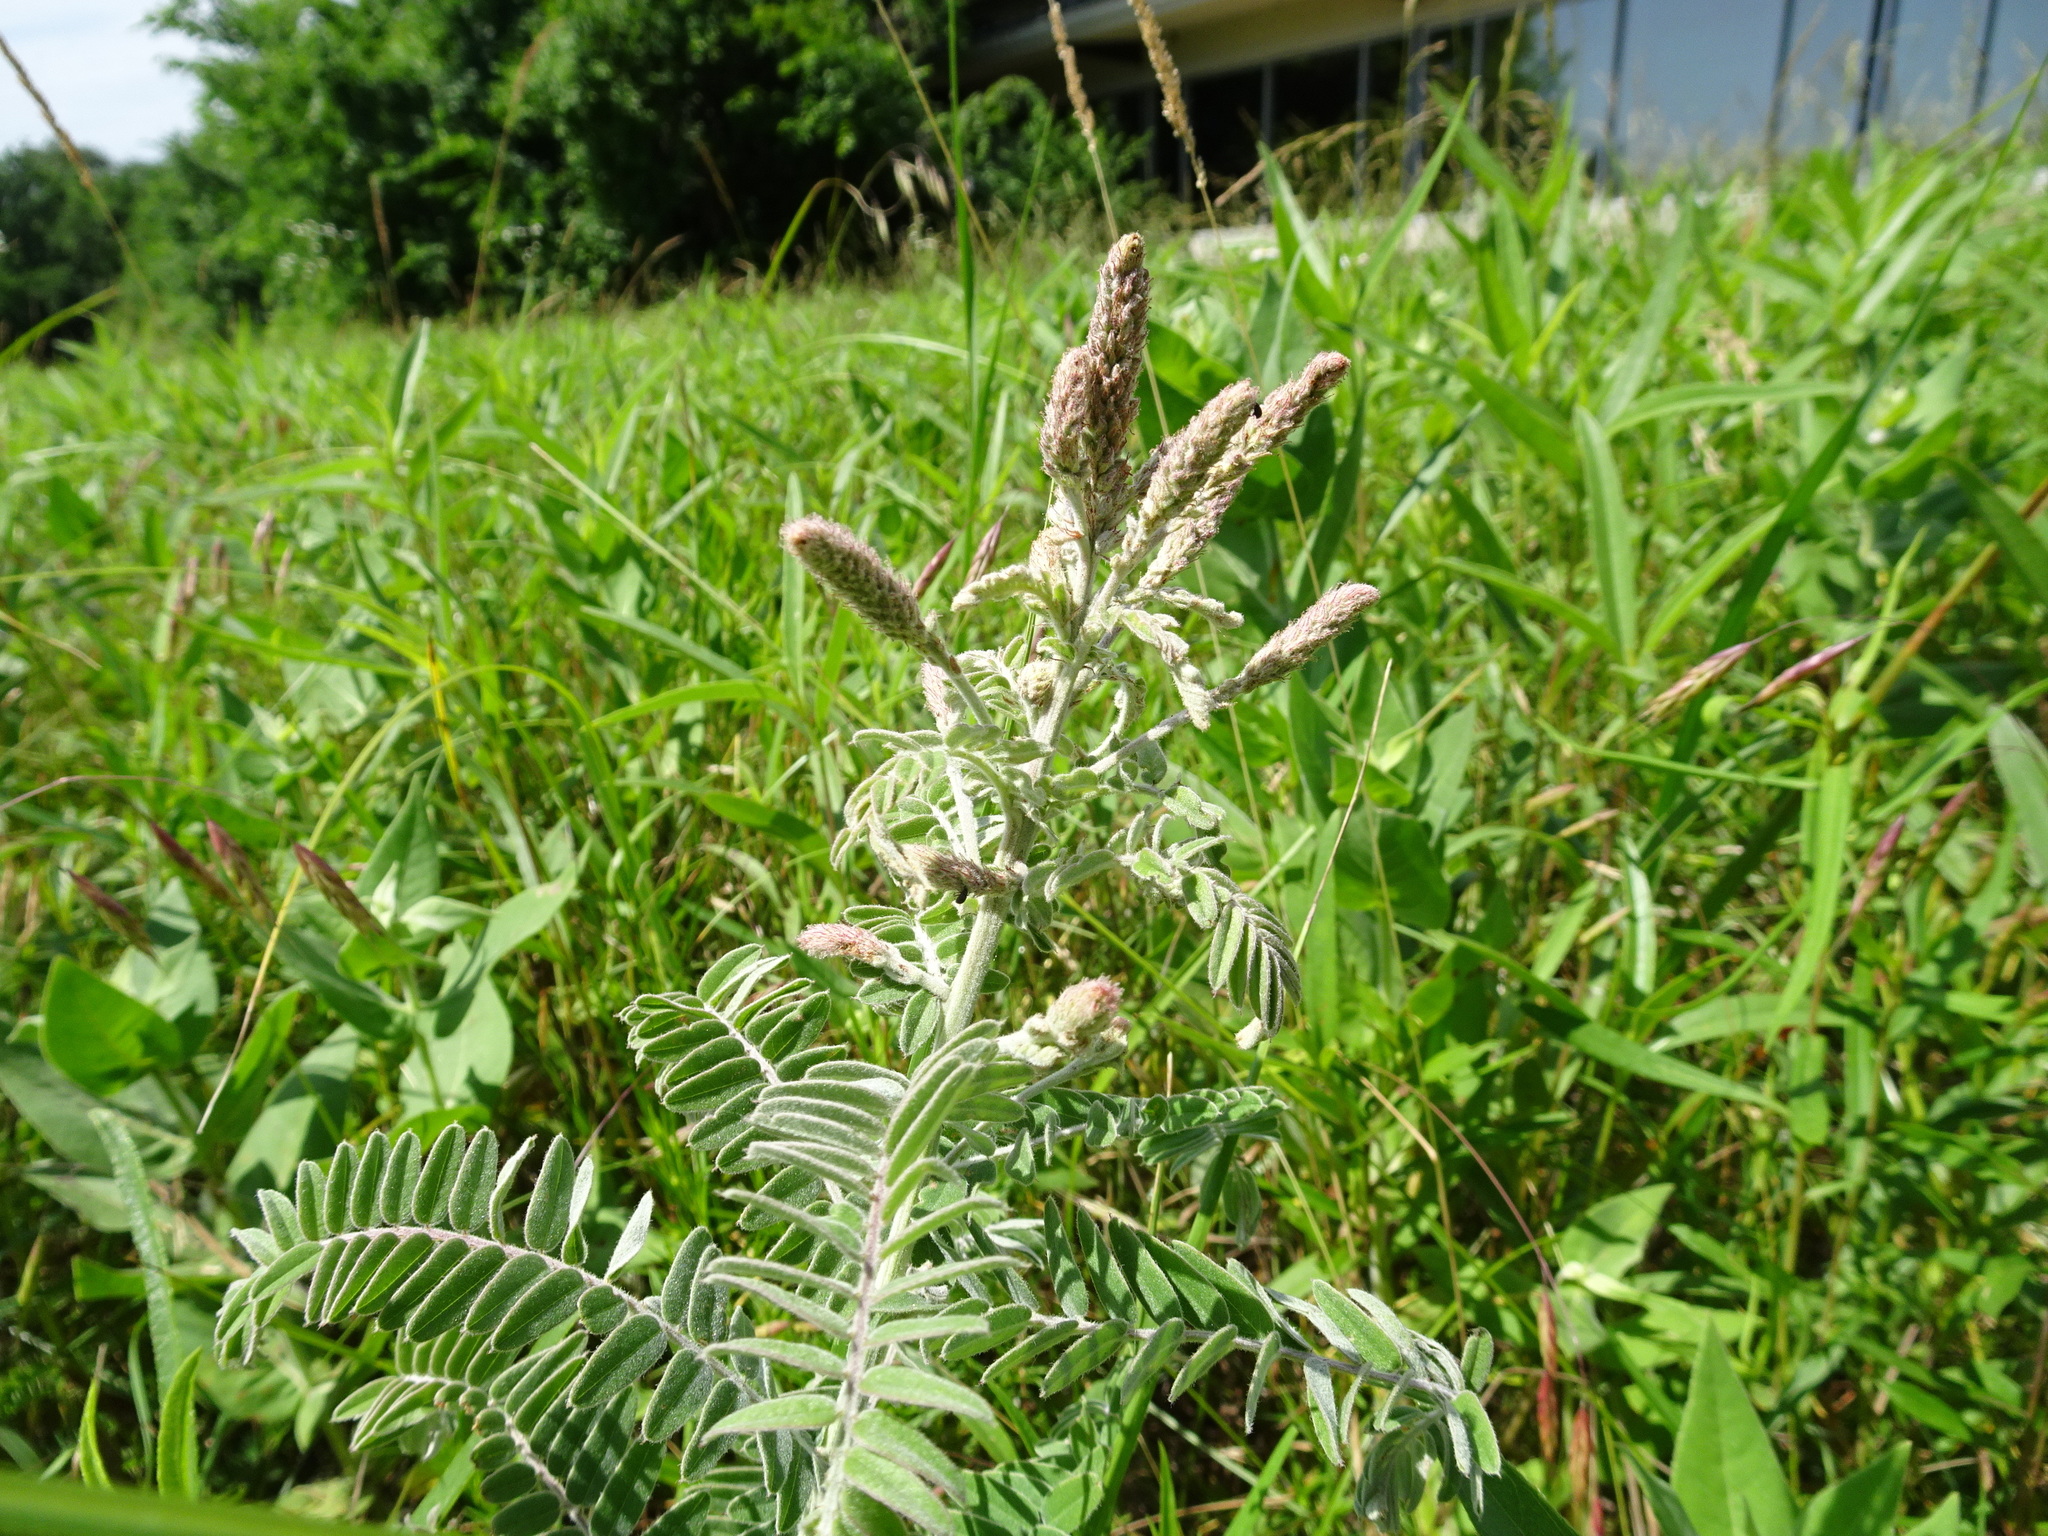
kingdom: Plantae
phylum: Tracheophyta
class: Magnoliopsida
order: Fabales
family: Fabaceae
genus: Amorpha
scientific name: Amorpha canescens
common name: Leadplant
